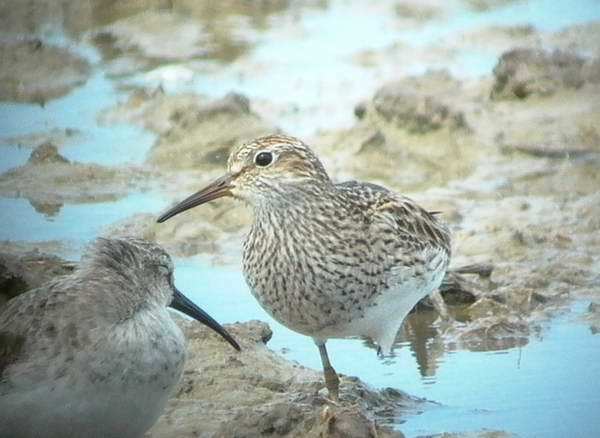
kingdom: Animalia
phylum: Chordata
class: Aves
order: Charadriiformes
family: Scolopacidae
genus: Calidris
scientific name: Calidris melanotos
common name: Pectoral sandpiper
